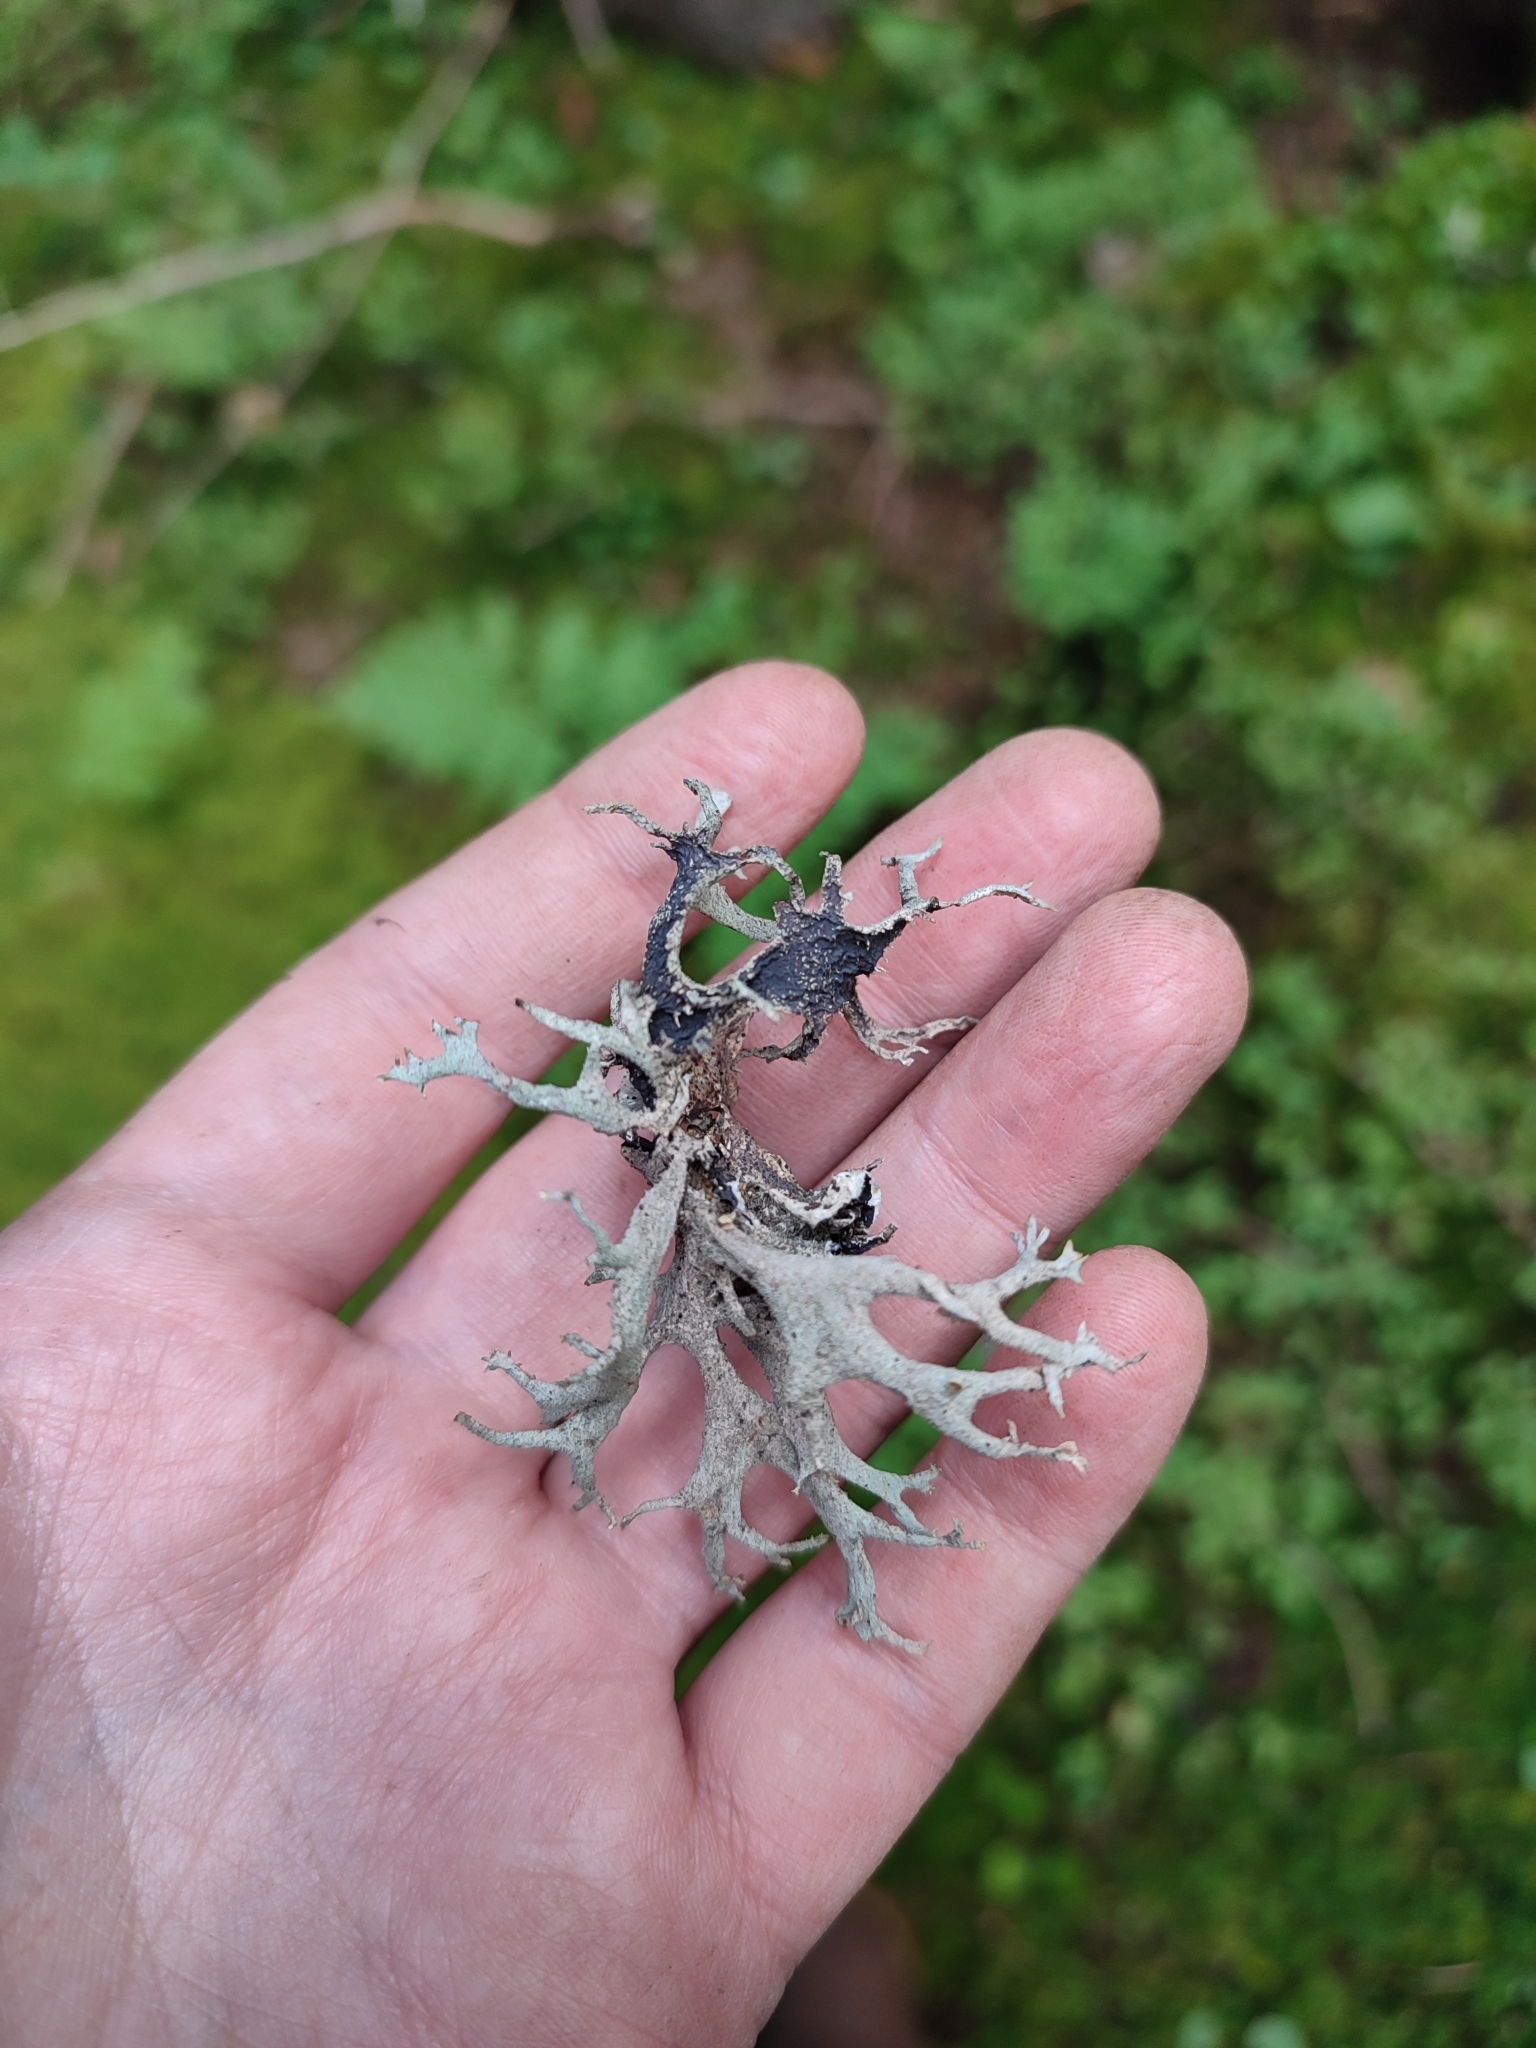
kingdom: Fungi
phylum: Ascomycota
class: Lecanoromycetes
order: Lecanorales
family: Parmeliaceae
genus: Pseudevernia
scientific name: Pseudevernia furfuracea
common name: Tree moss
